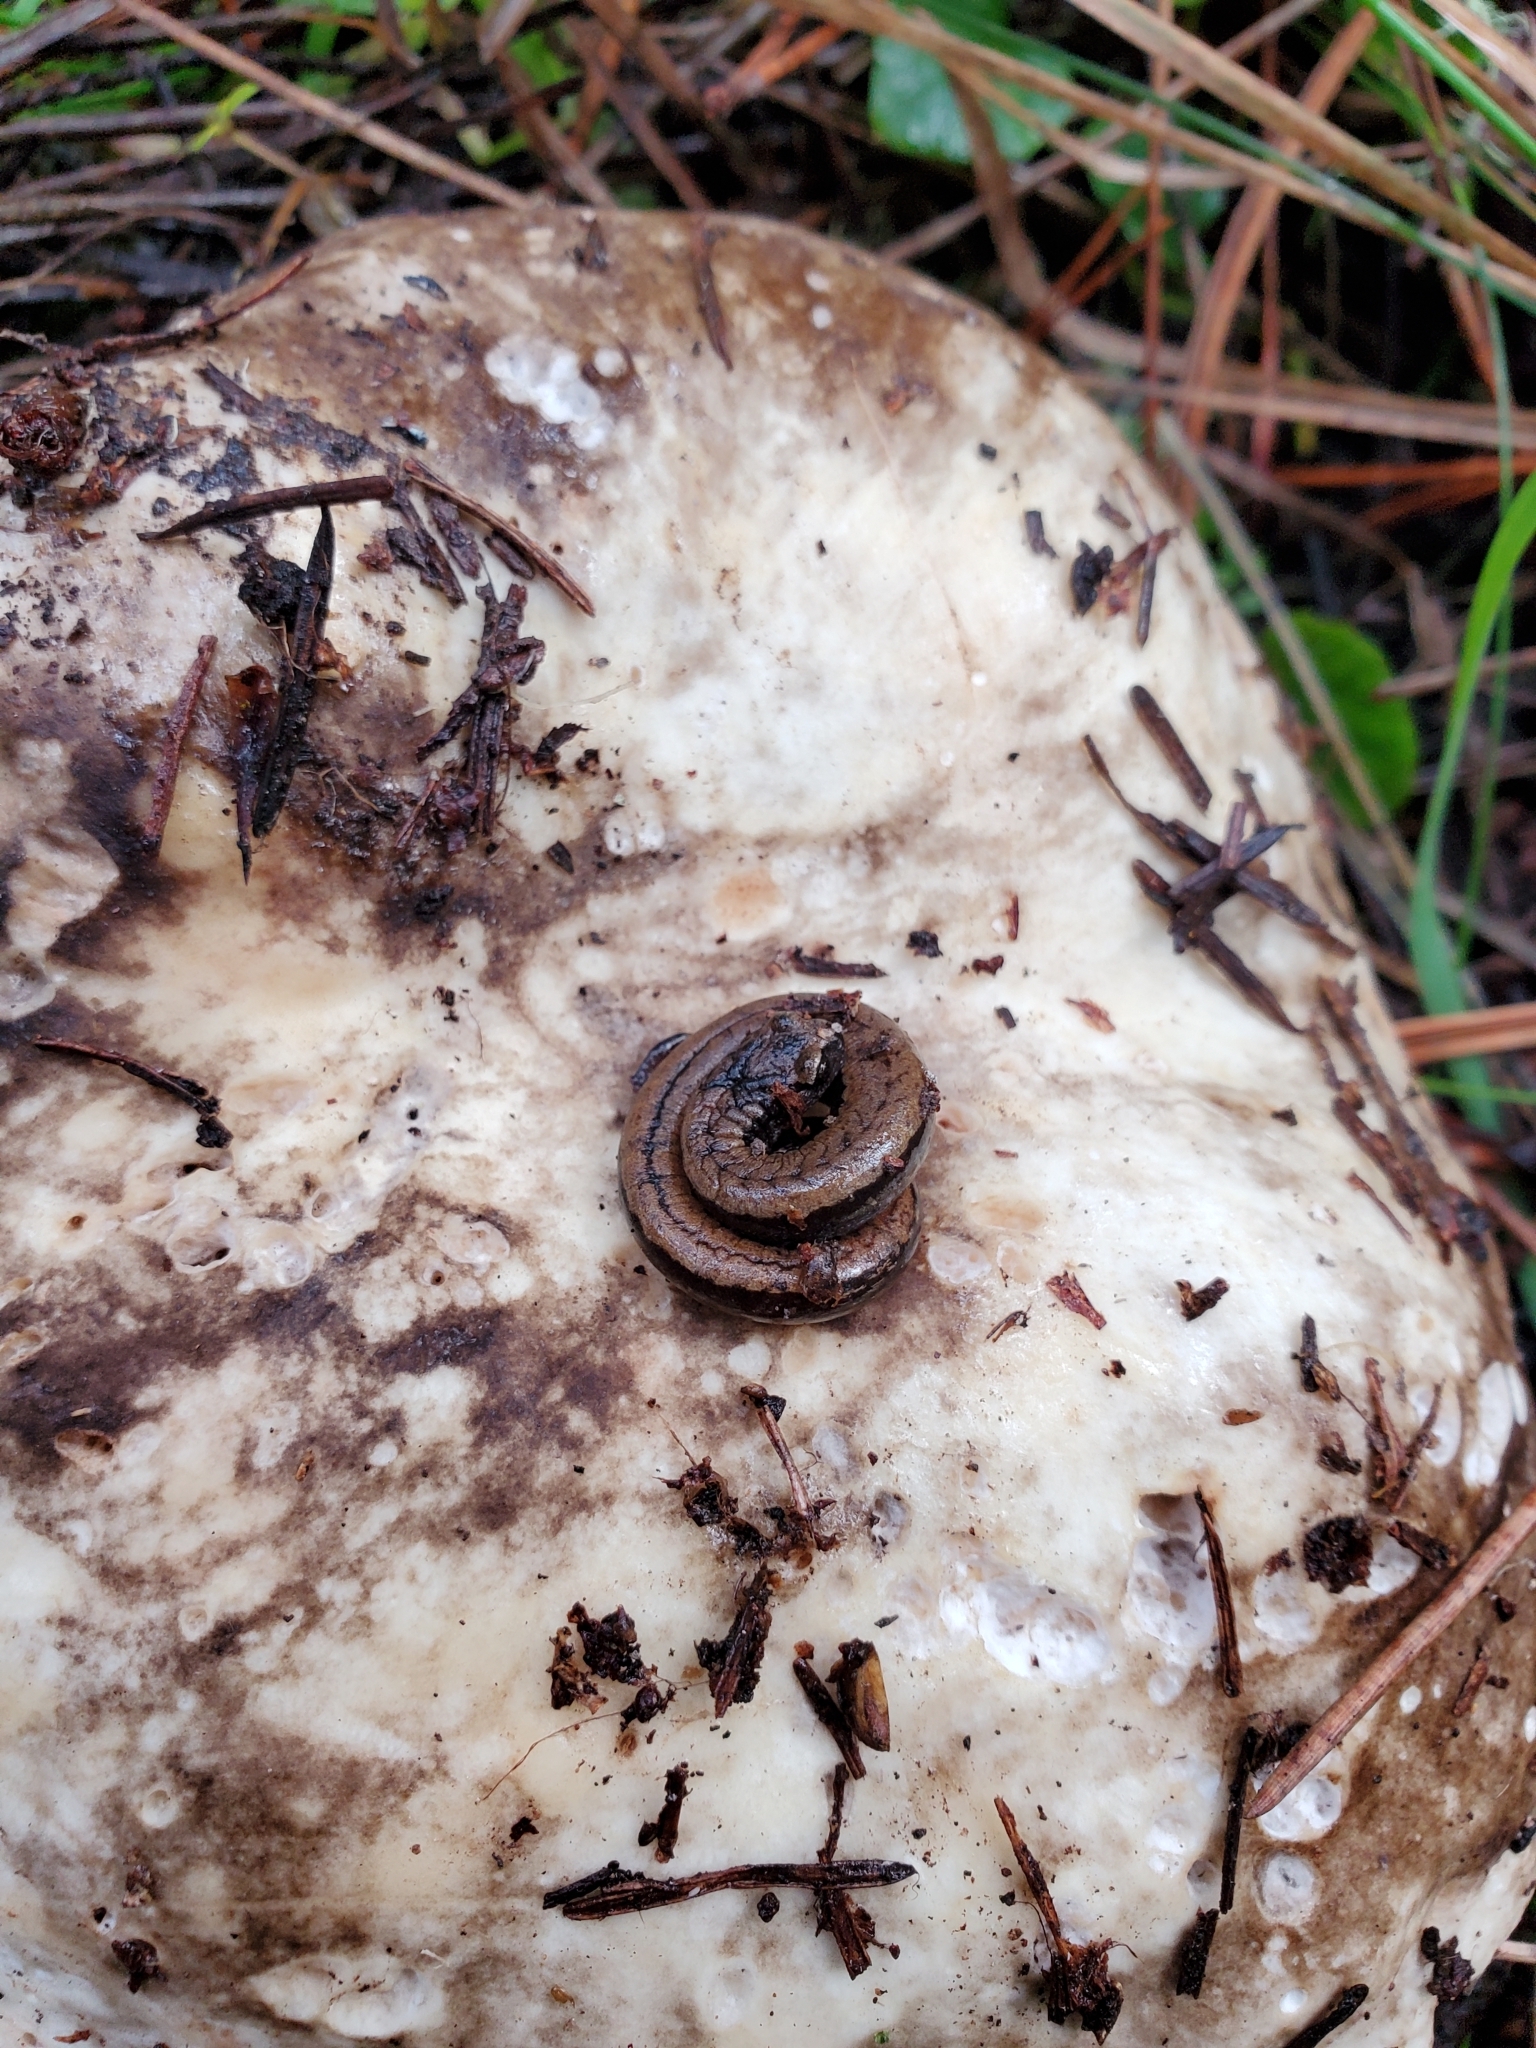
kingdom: Animalia
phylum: Chordata
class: Amphibia
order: Caudata
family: Plethodontidae
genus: Batrachoseps
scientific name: Batrachoseps attenuatus
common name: California slender salamander
